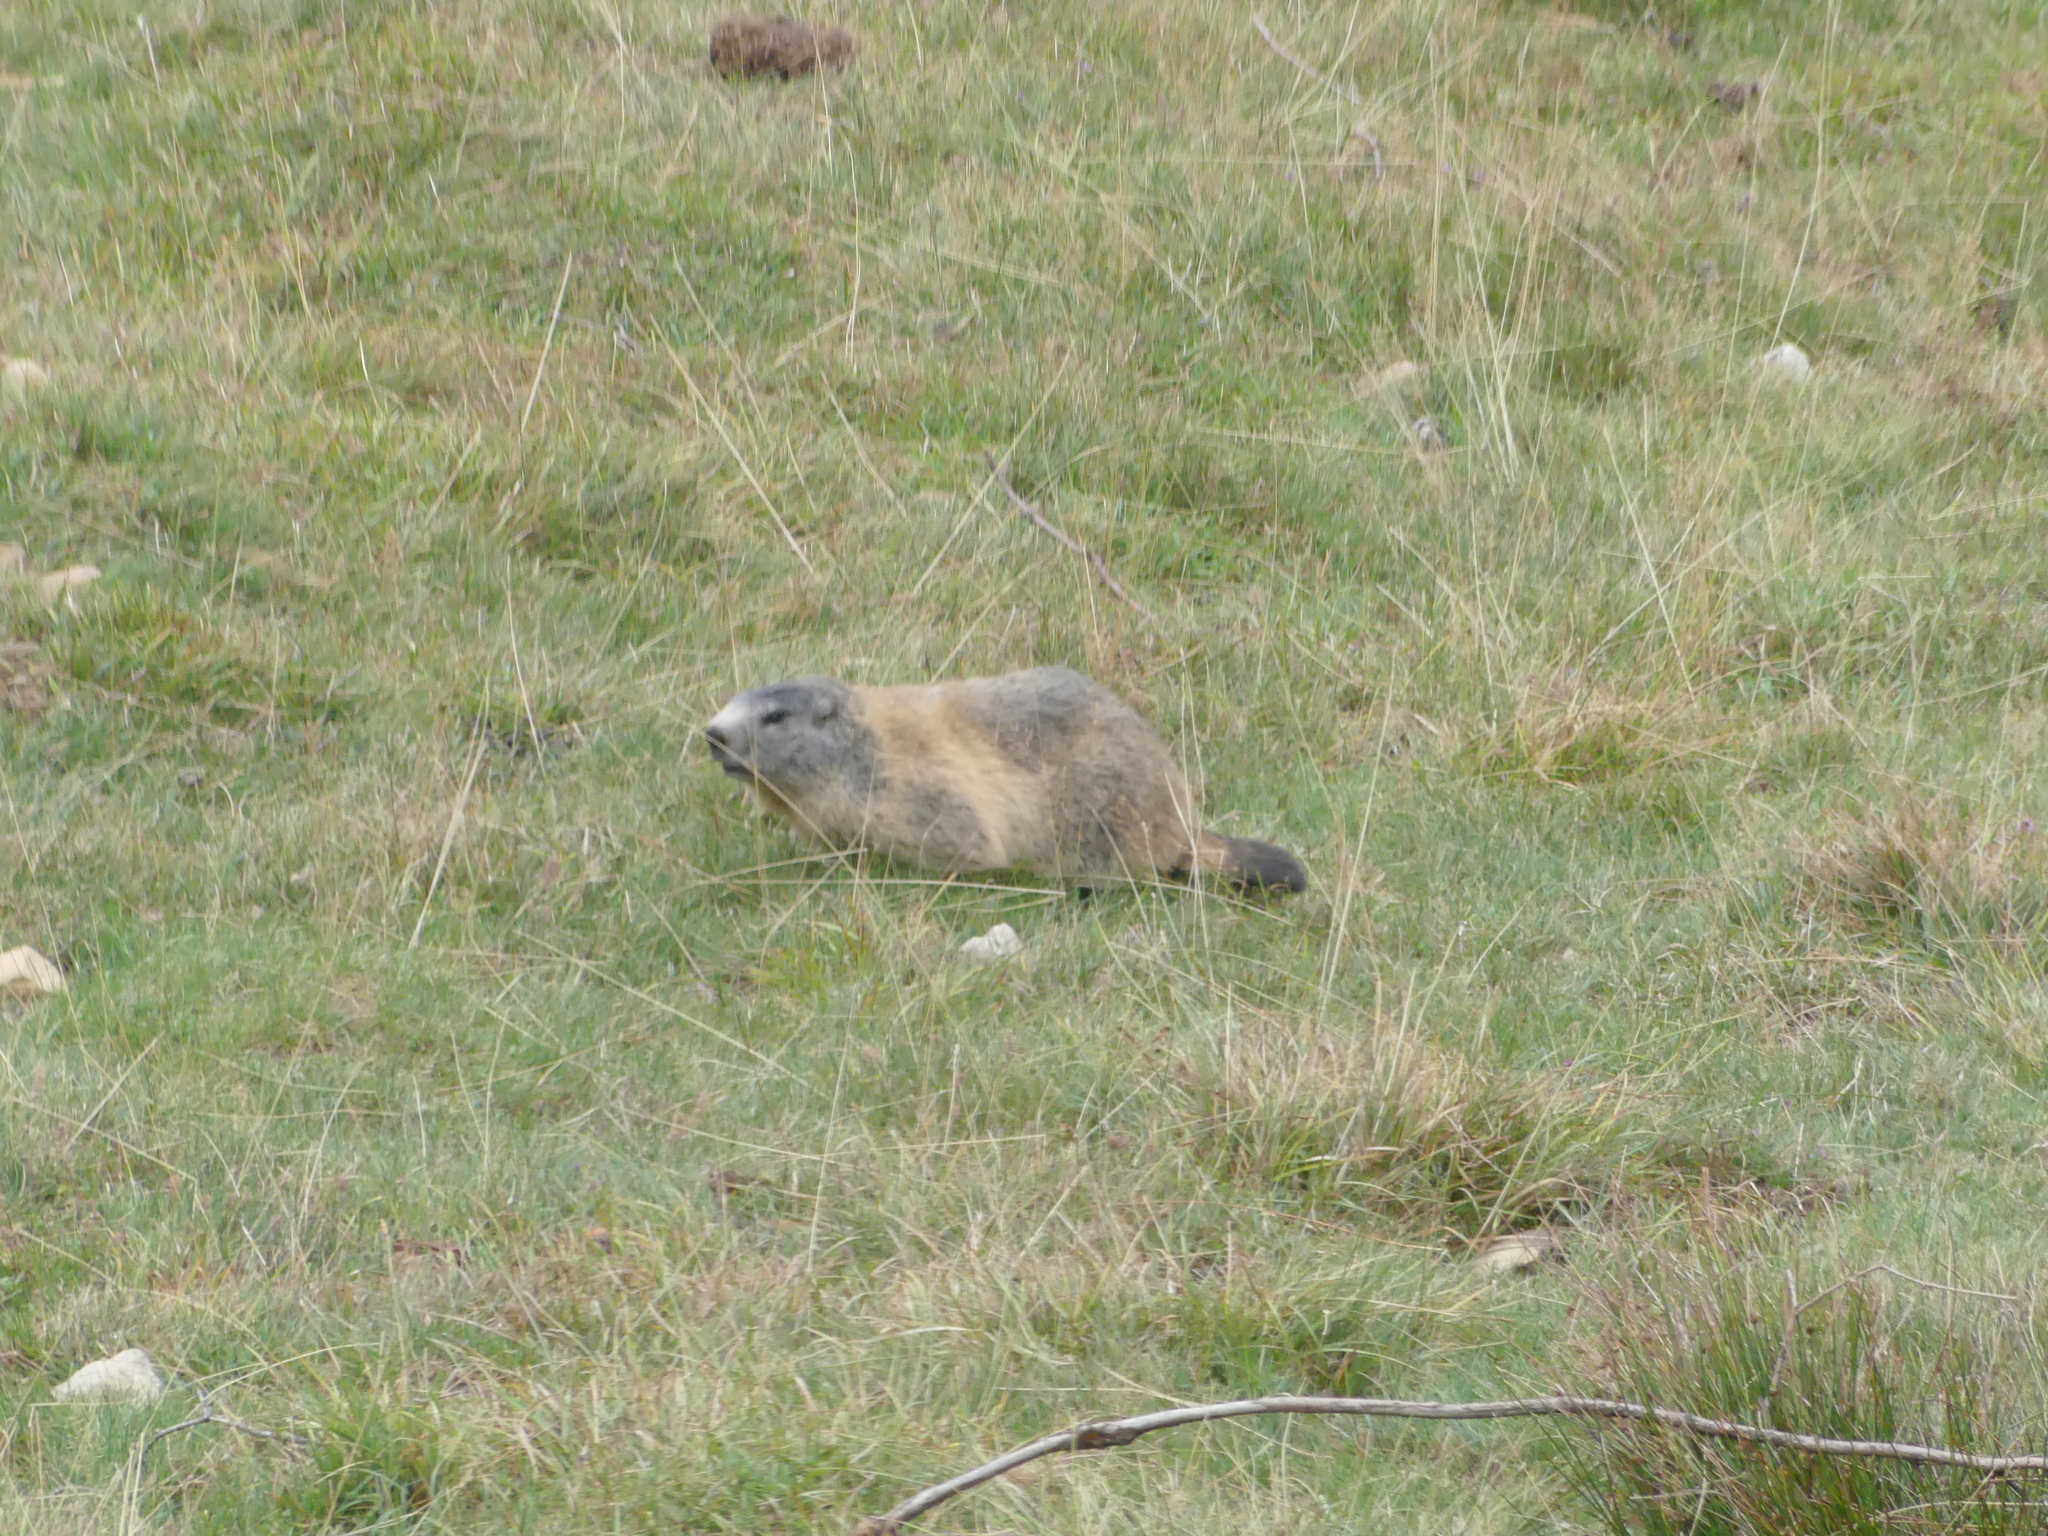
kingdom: Animalia
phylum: Chordata
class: Mammalia
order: Rodentia
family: Sciuridae
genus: Marmota
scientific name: Marmota marmota
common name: Alpine marmot
